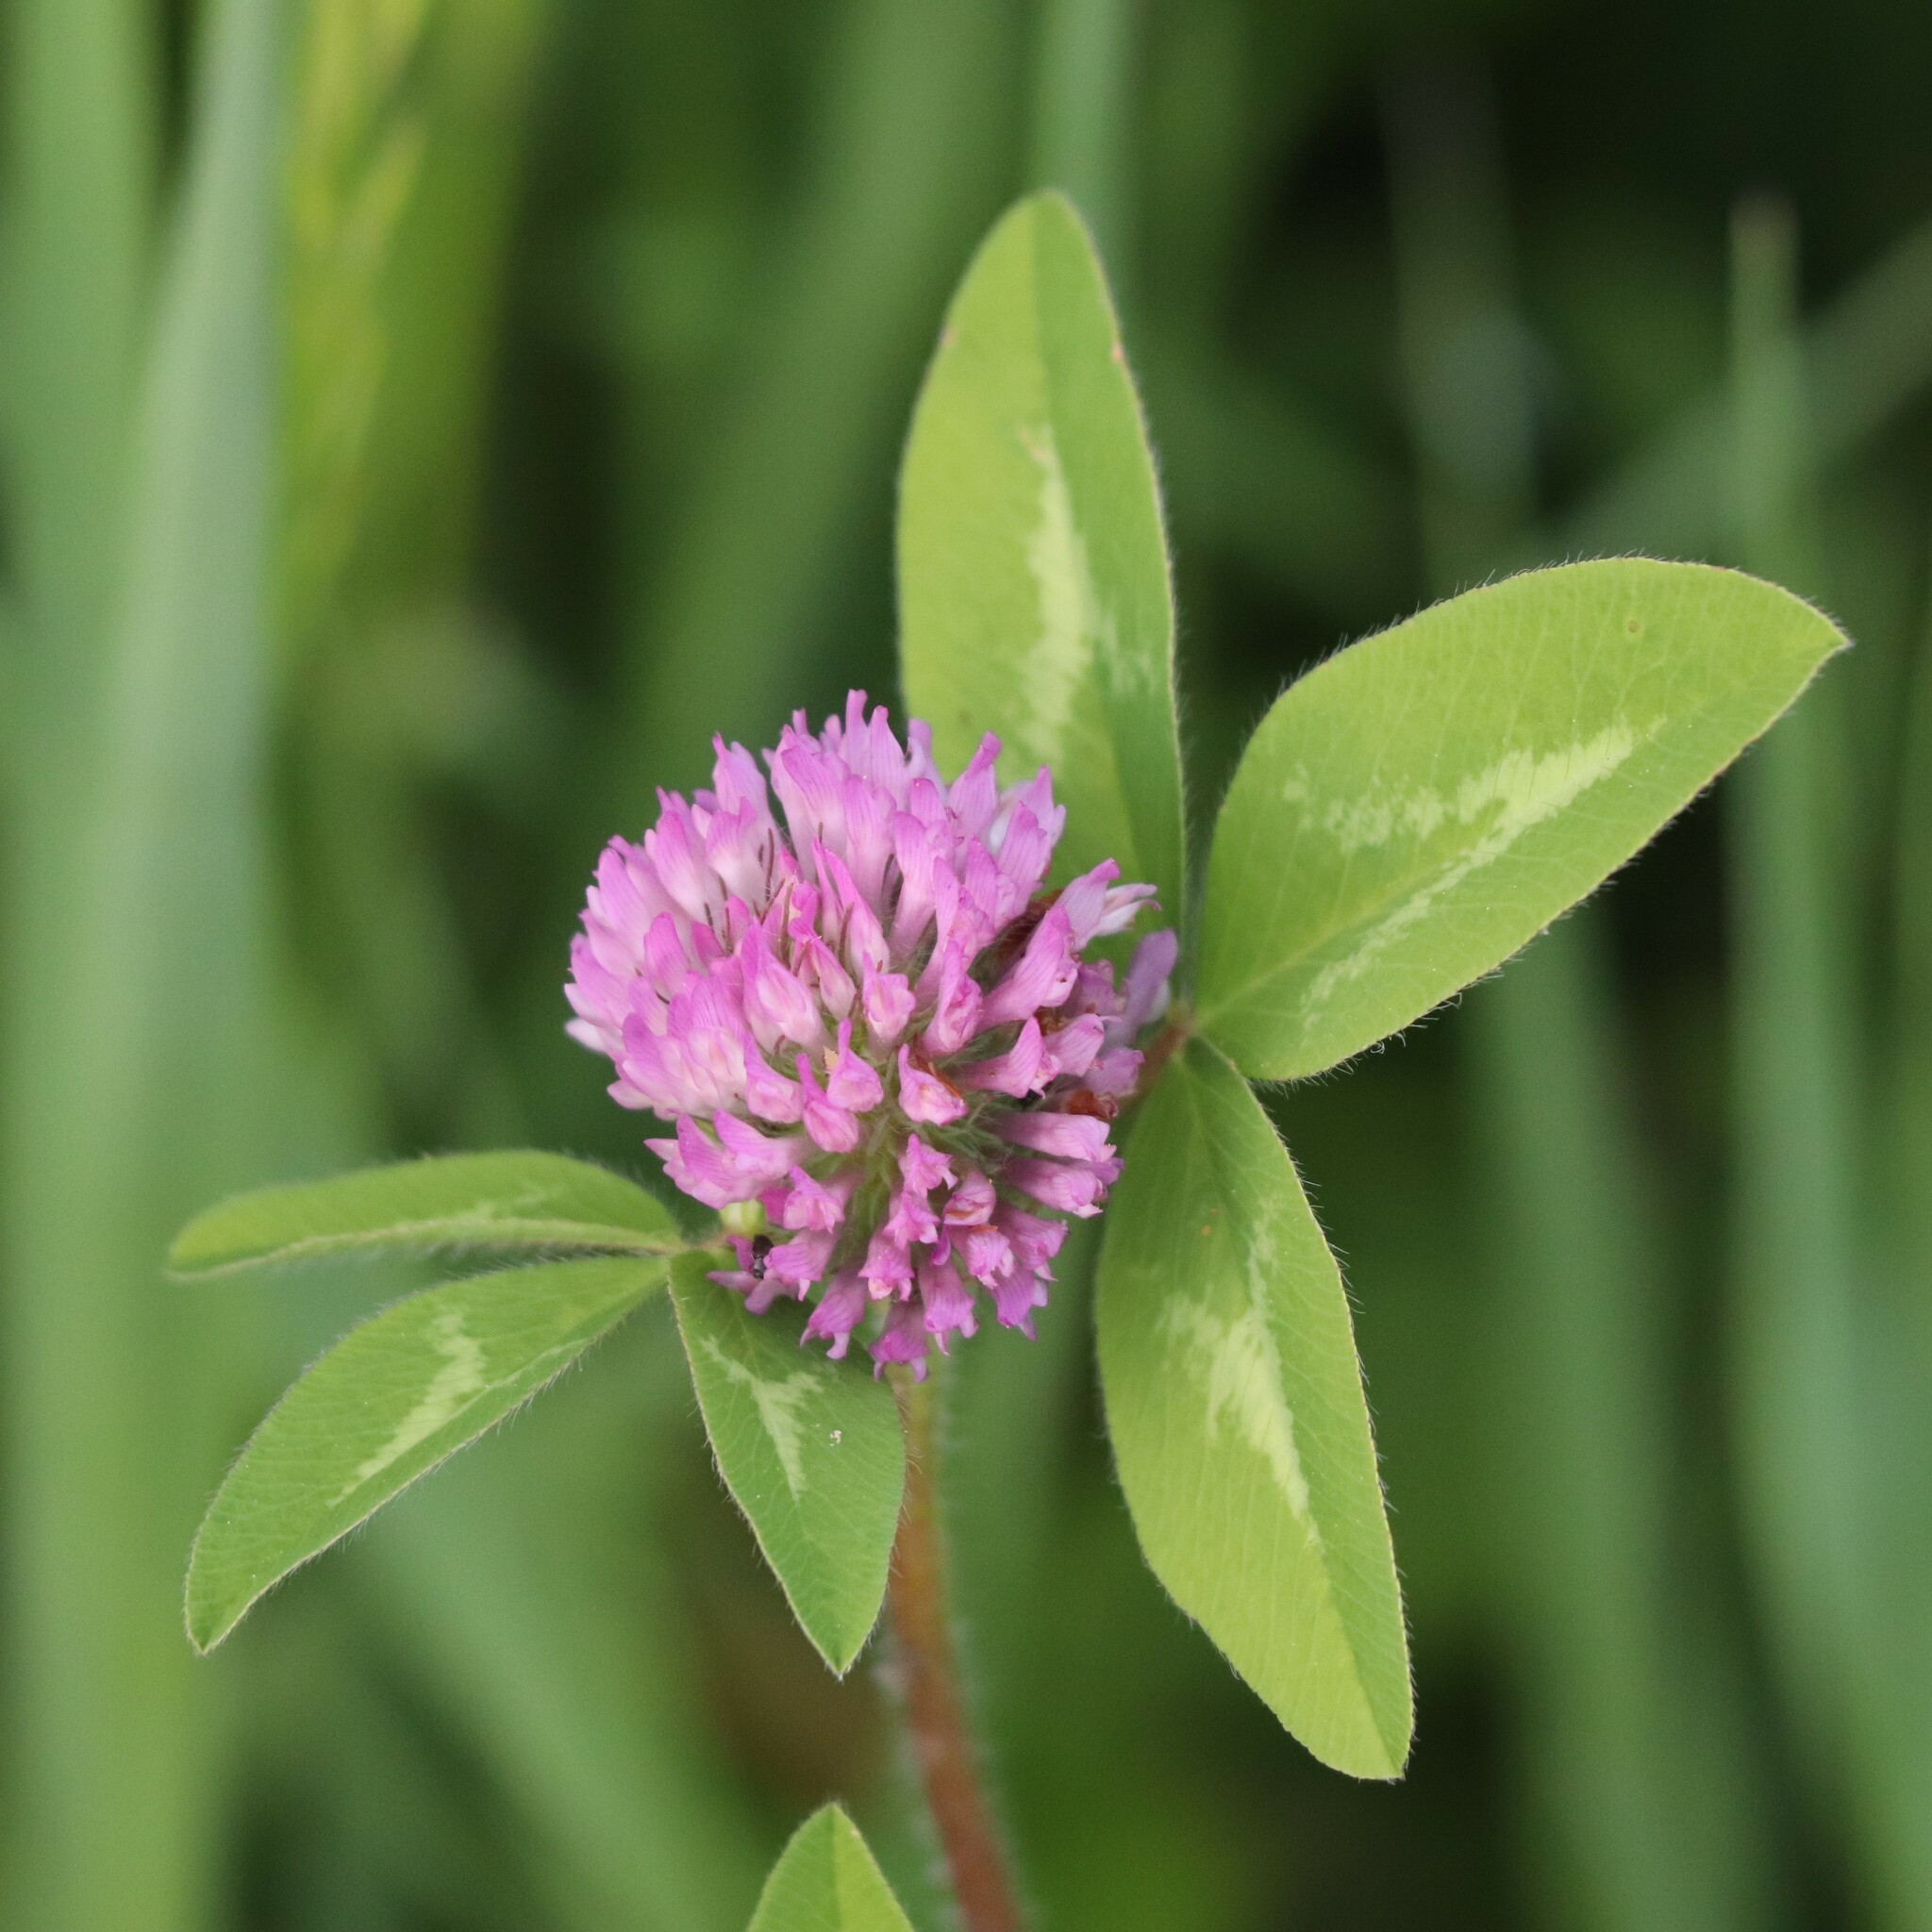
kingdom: Plantae
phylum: Tracheophyta
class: Magnoliopsida
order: Fabales
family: Fabaceae
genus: Trifolium
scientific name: Trifolium pratense
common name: Red clover
